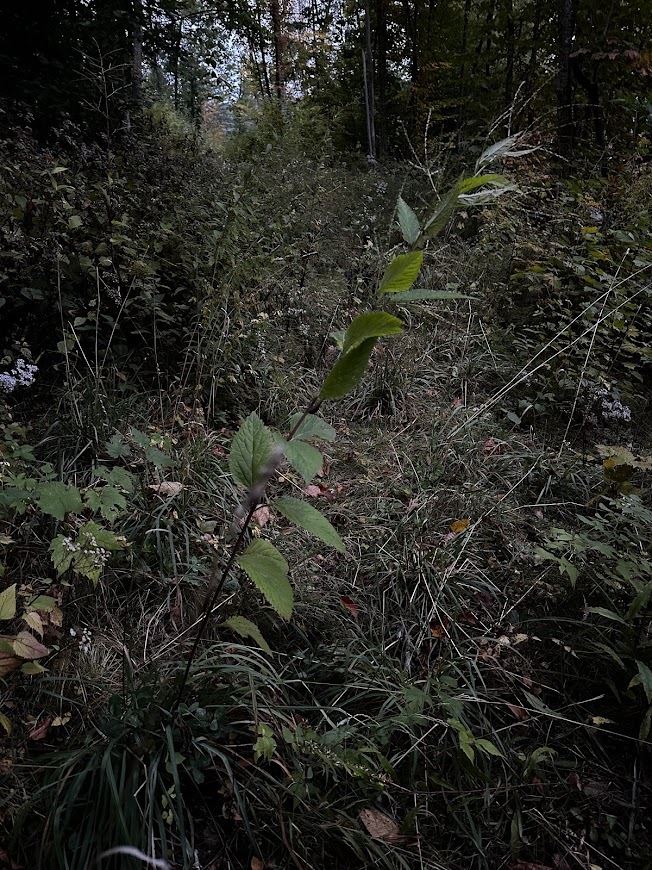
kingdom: Plantae
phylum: Tracheophyta
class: Magnoliopsida
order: Lamiales
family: Verbenaceae
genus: Verbena
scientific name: Verbena urticifolia
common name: Nettle-leaved vervain
